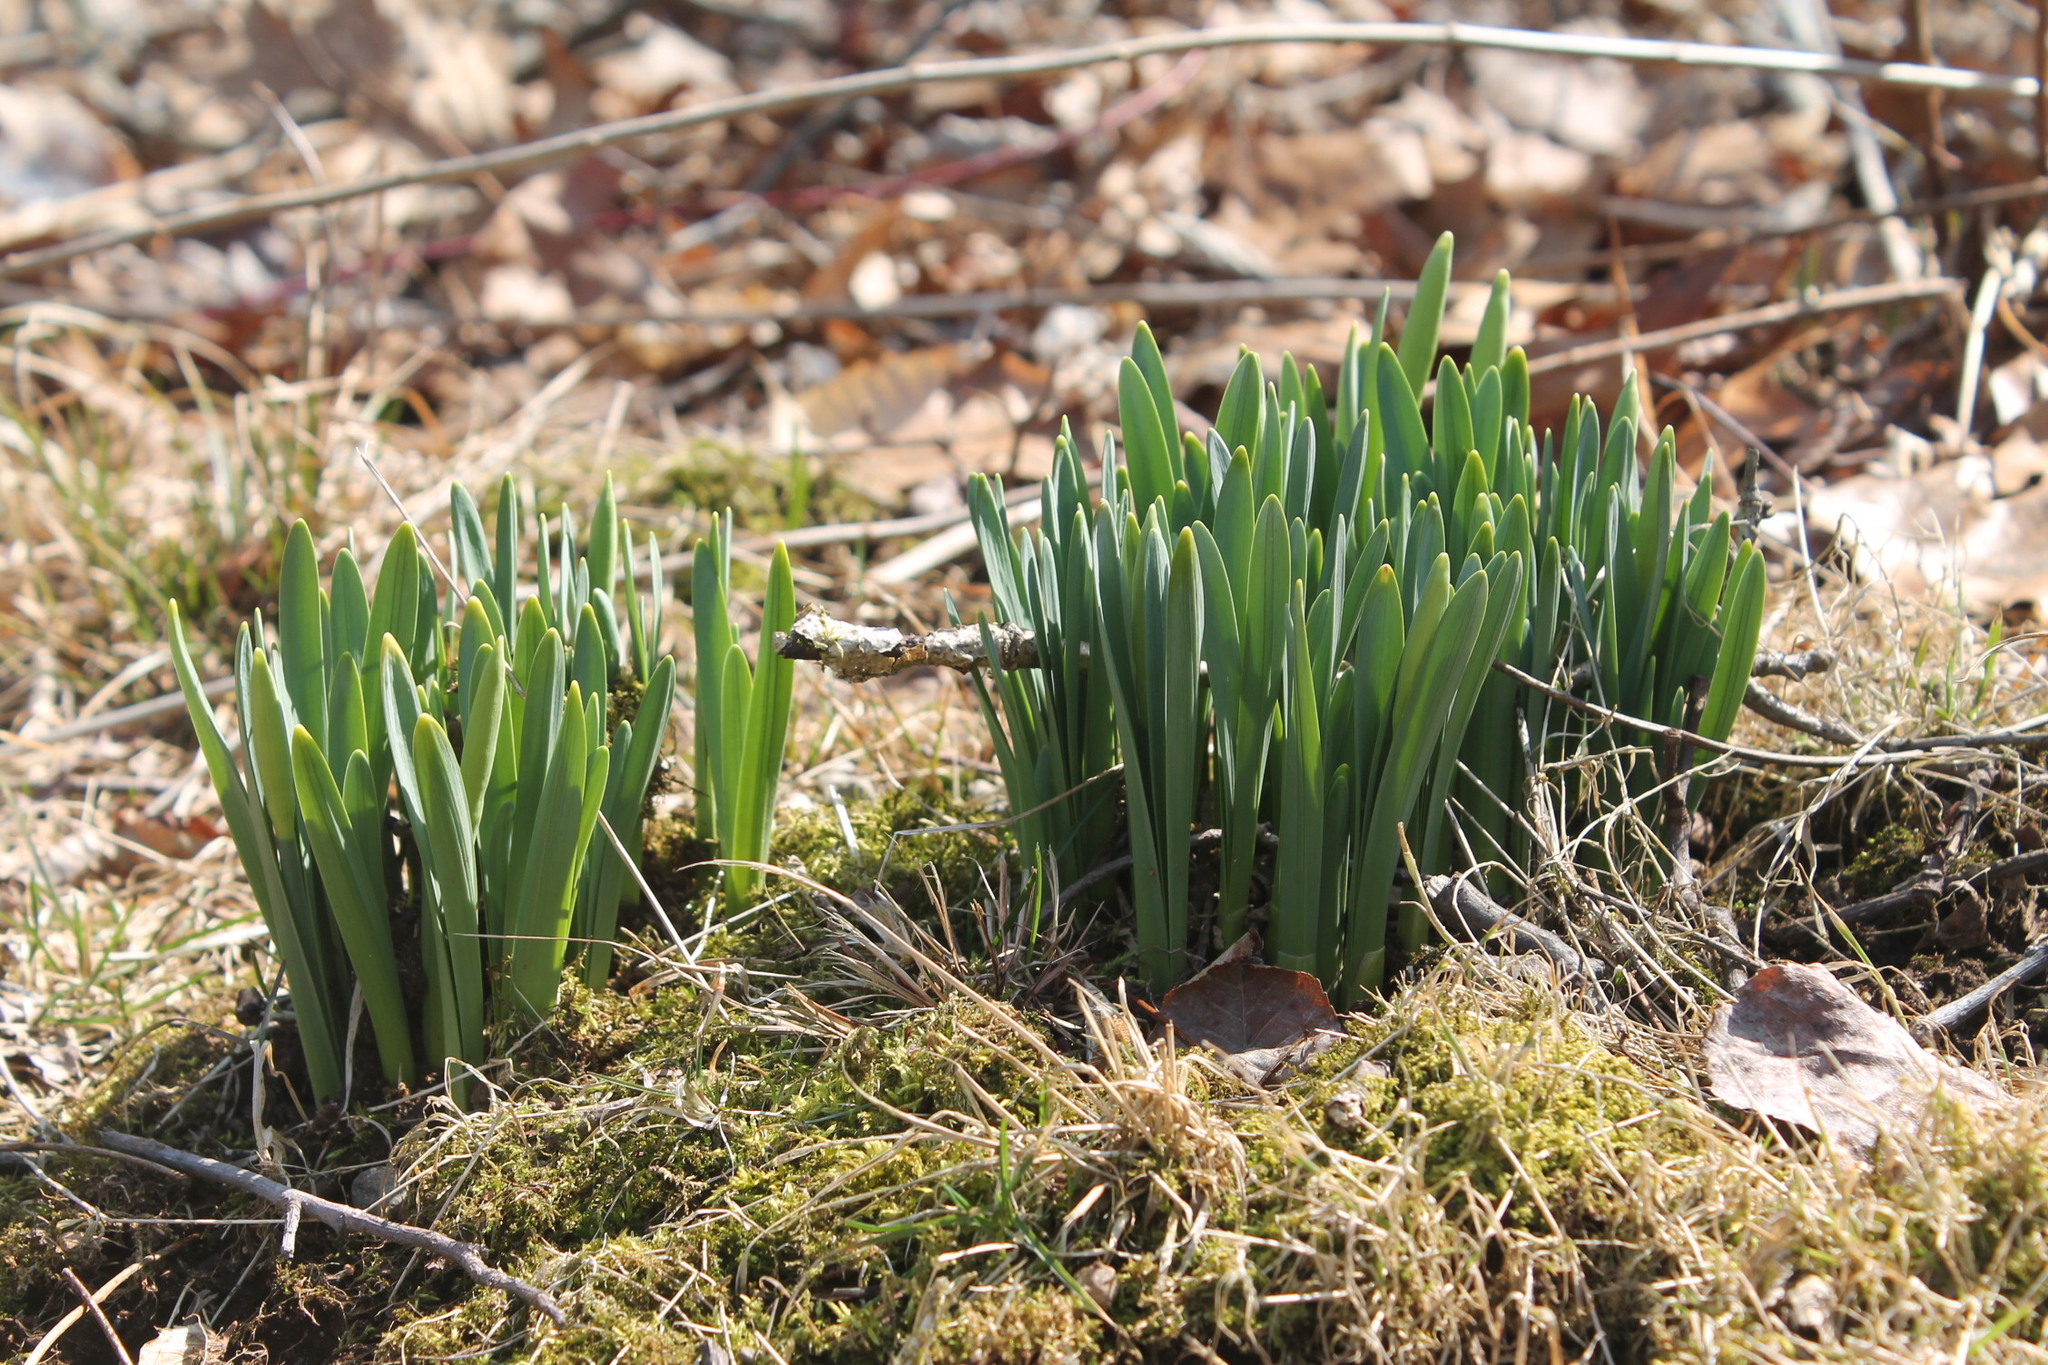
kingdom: Plantae
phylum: Tracheophyta
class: Liliopsida
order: Asparagales
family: Amaryllidaceae
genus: Narcissus
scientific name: Narcissus
